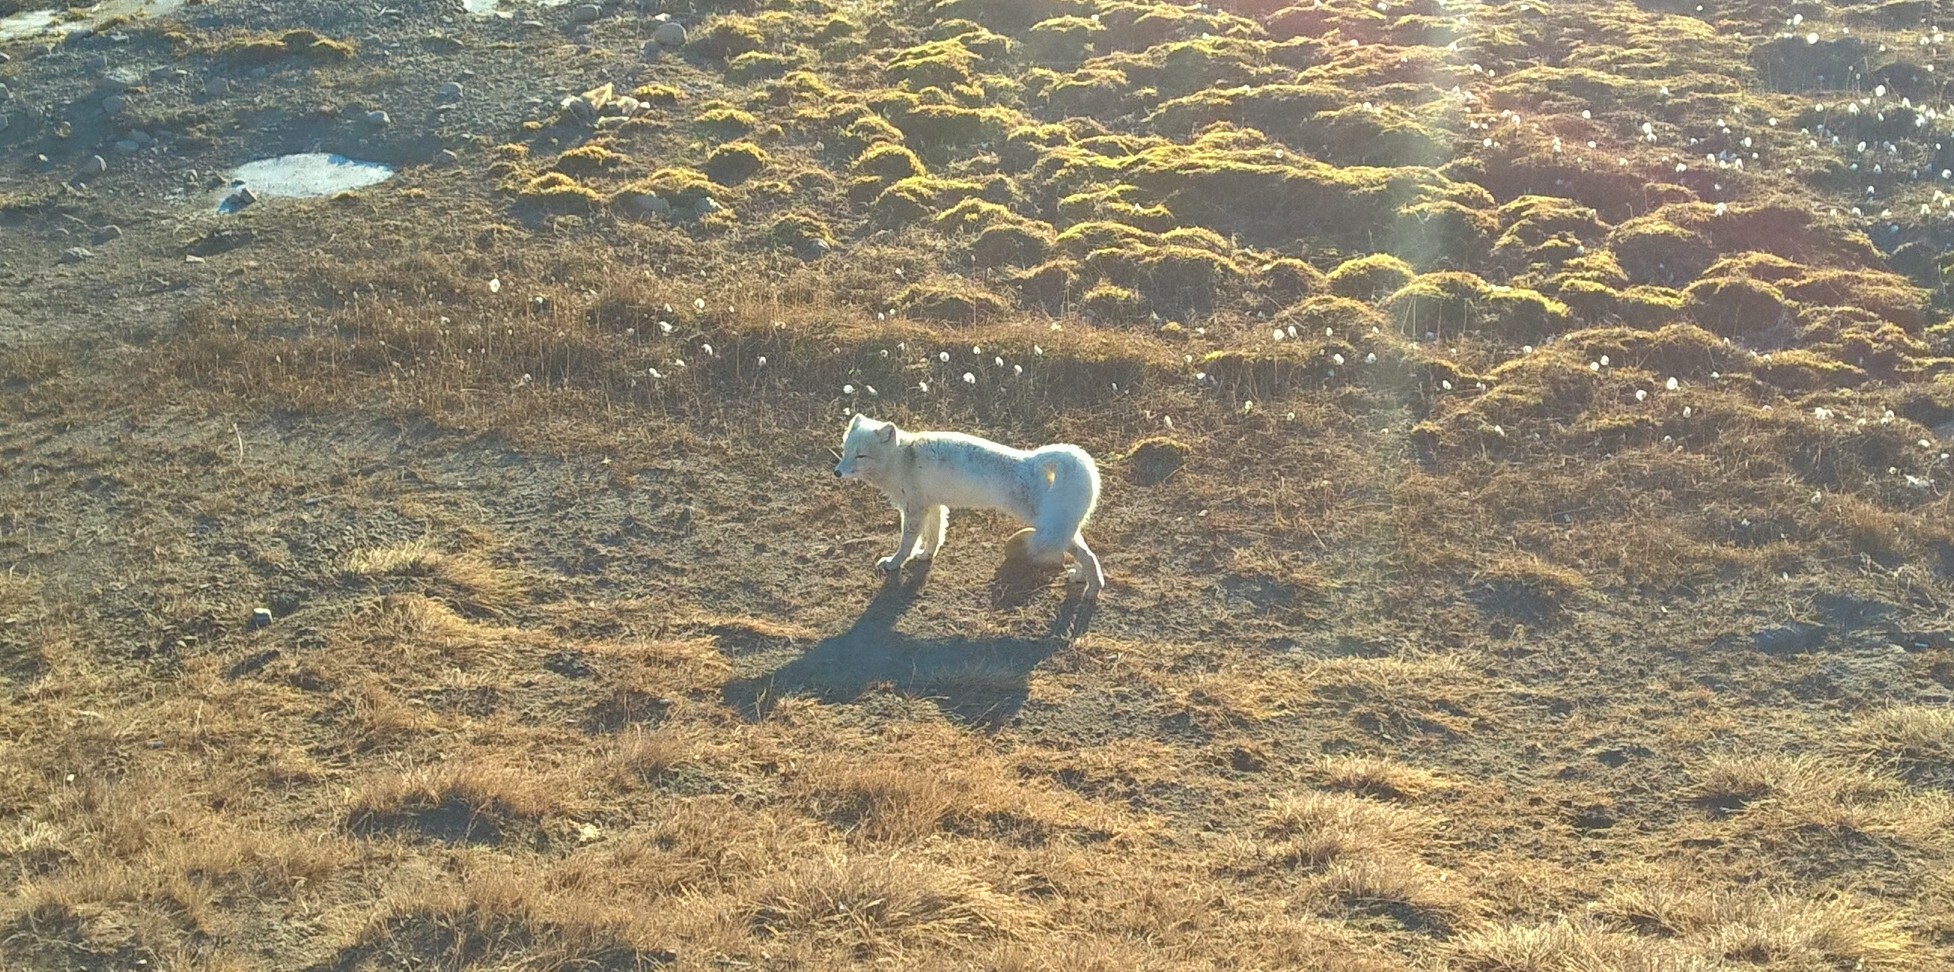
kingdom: Animalia
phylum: Chordata
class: Mammalia
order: Carnivora
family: Canidae
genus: Vulpes
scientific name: Vulpes lagopus
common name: Arctic fox
